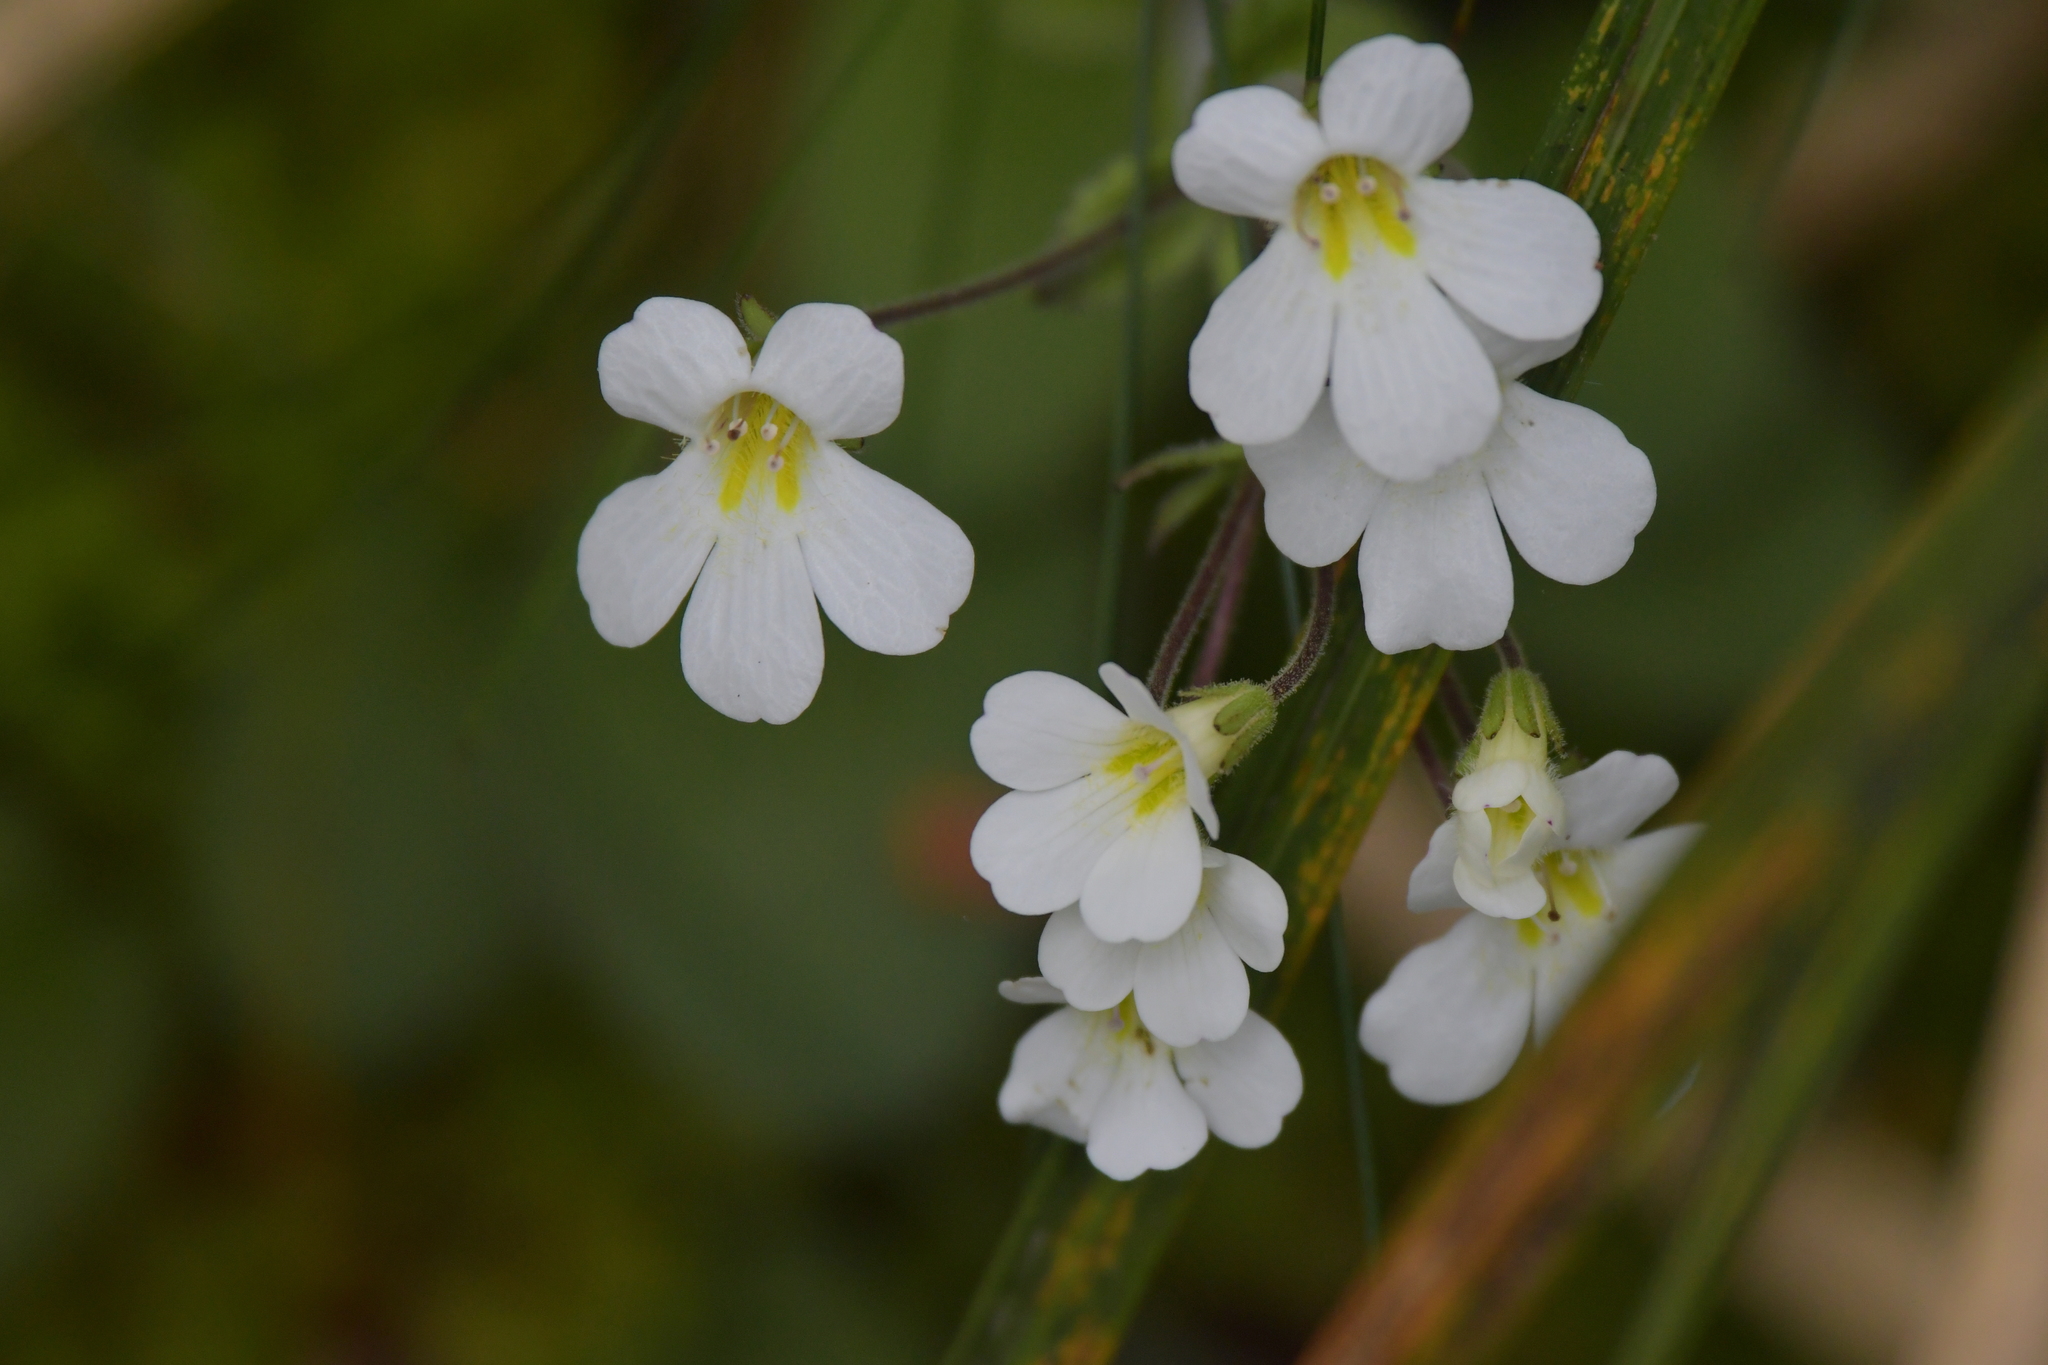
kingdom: Plantae
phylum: Tracheophyta
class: Magnoliopsida
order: Lamiales
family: Plantaginaceae
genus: Ourisia
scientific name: Ourisia macrophylla
